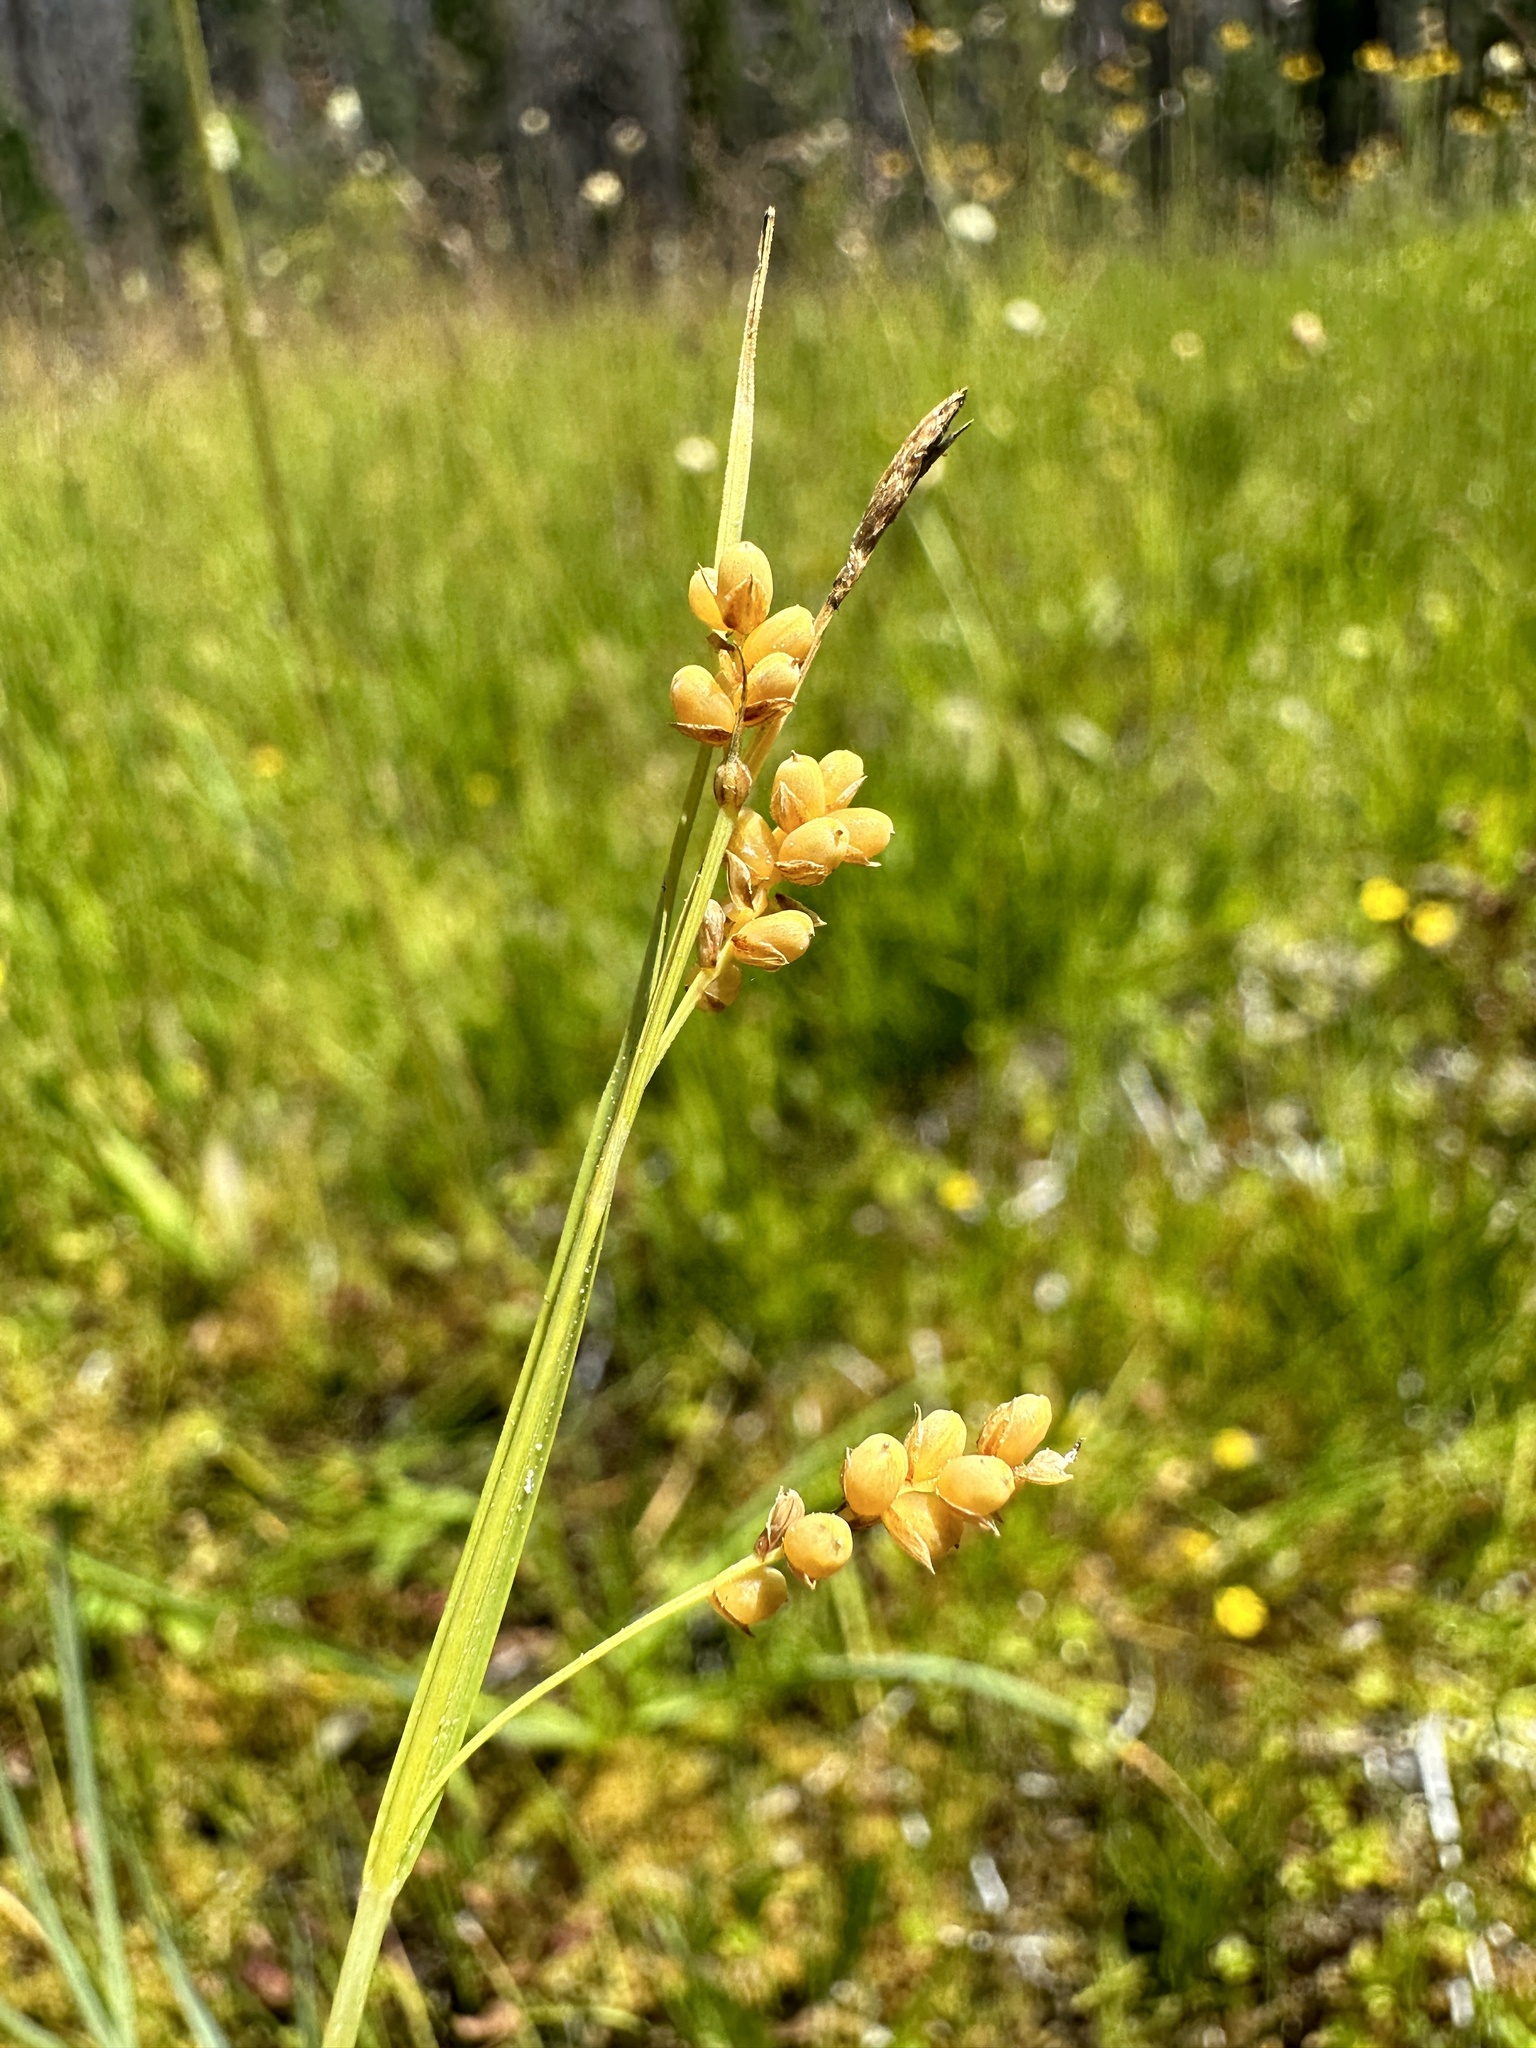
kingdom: Plantae
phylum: Tracheophyta
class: Liliopsida
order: Poales
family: Cyperaceae
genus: Carex
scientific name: Carex aurea
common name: Golden sedge
